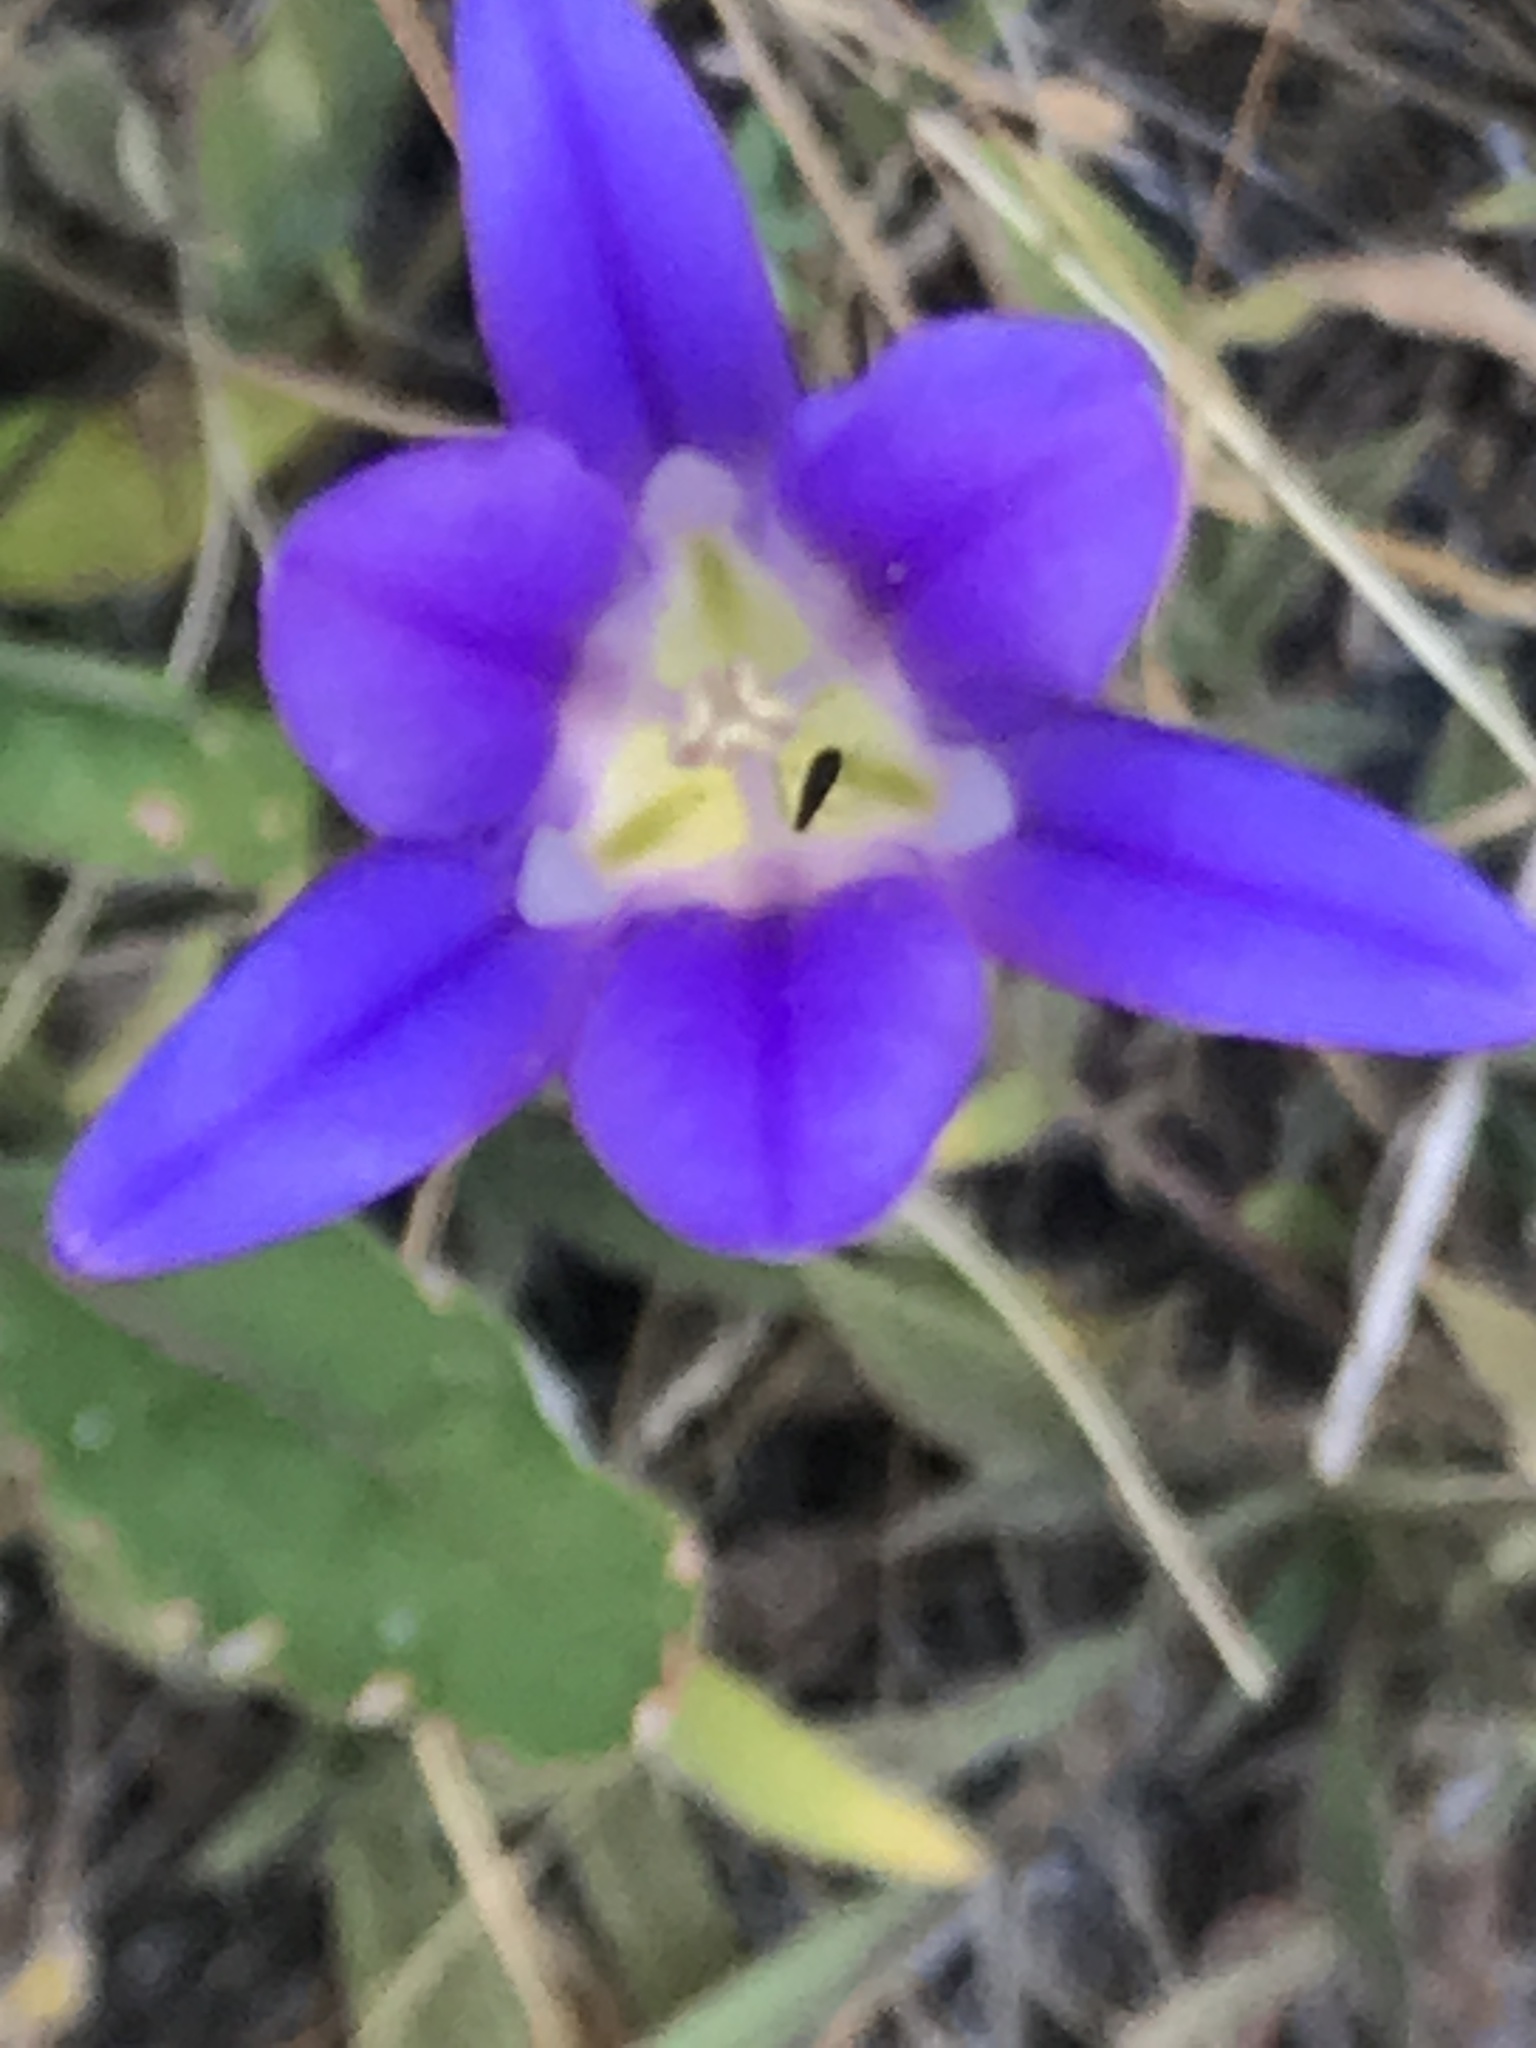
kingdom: Plantae
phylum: Tracheophyta
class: Liliopsida
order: Asparagales
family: Asparagaceae
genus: Brodiaea
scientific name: Brodiaea elegans
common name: Elegant cluster-lily
